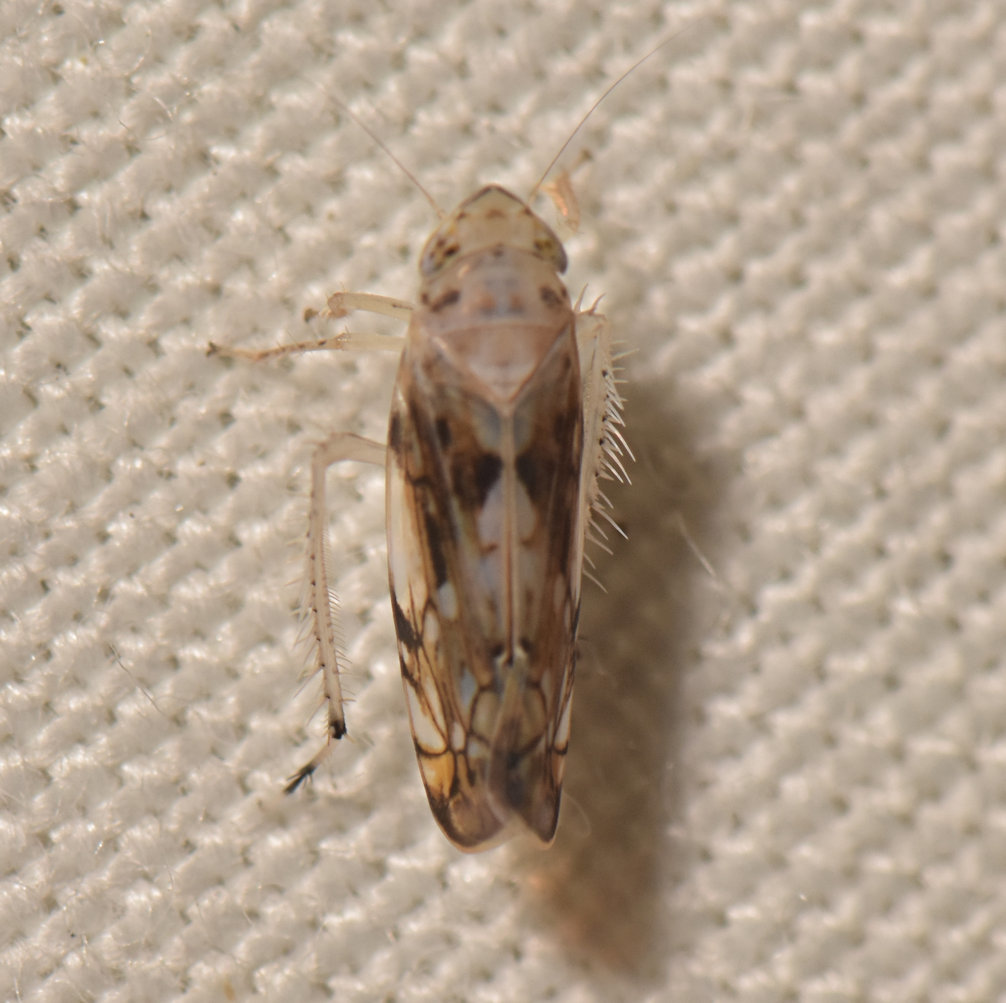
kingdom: Animalia
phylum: Arthropoda
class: Insecta
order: Hemiptera
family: Cicadellidae
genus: Scaphoideus
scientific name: Scaphoideus intricatus
